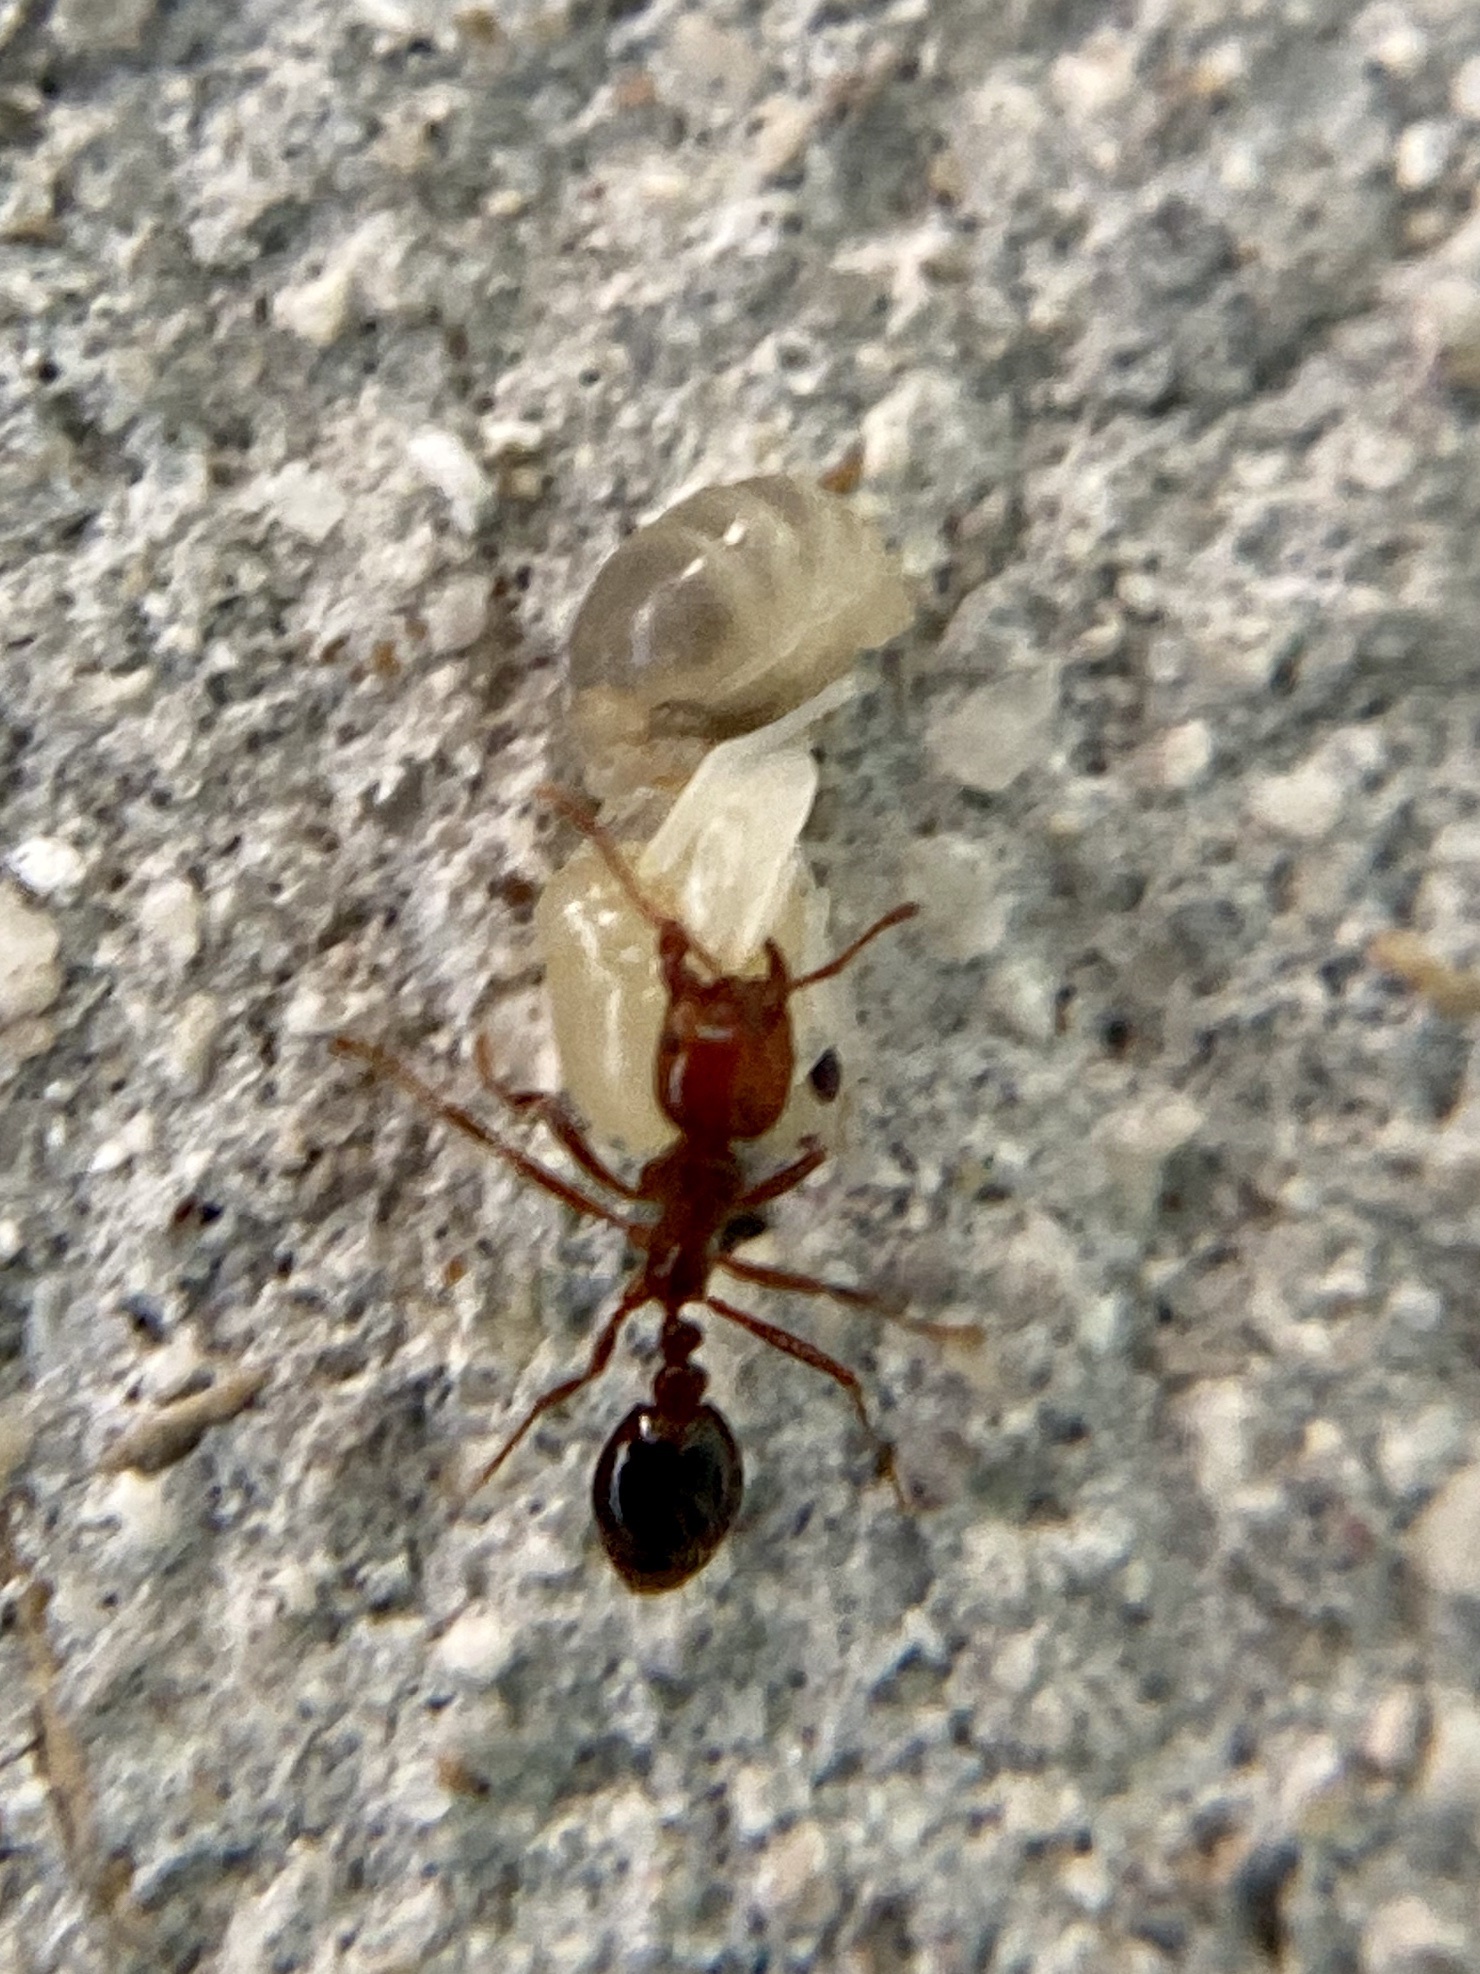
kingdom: Animalia
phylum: Arthropoda
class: Insecta
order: Hymenoptera
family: Formicidae
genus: Solenopsis
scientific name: Solenopsis invicta
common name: Red imported fire ant
